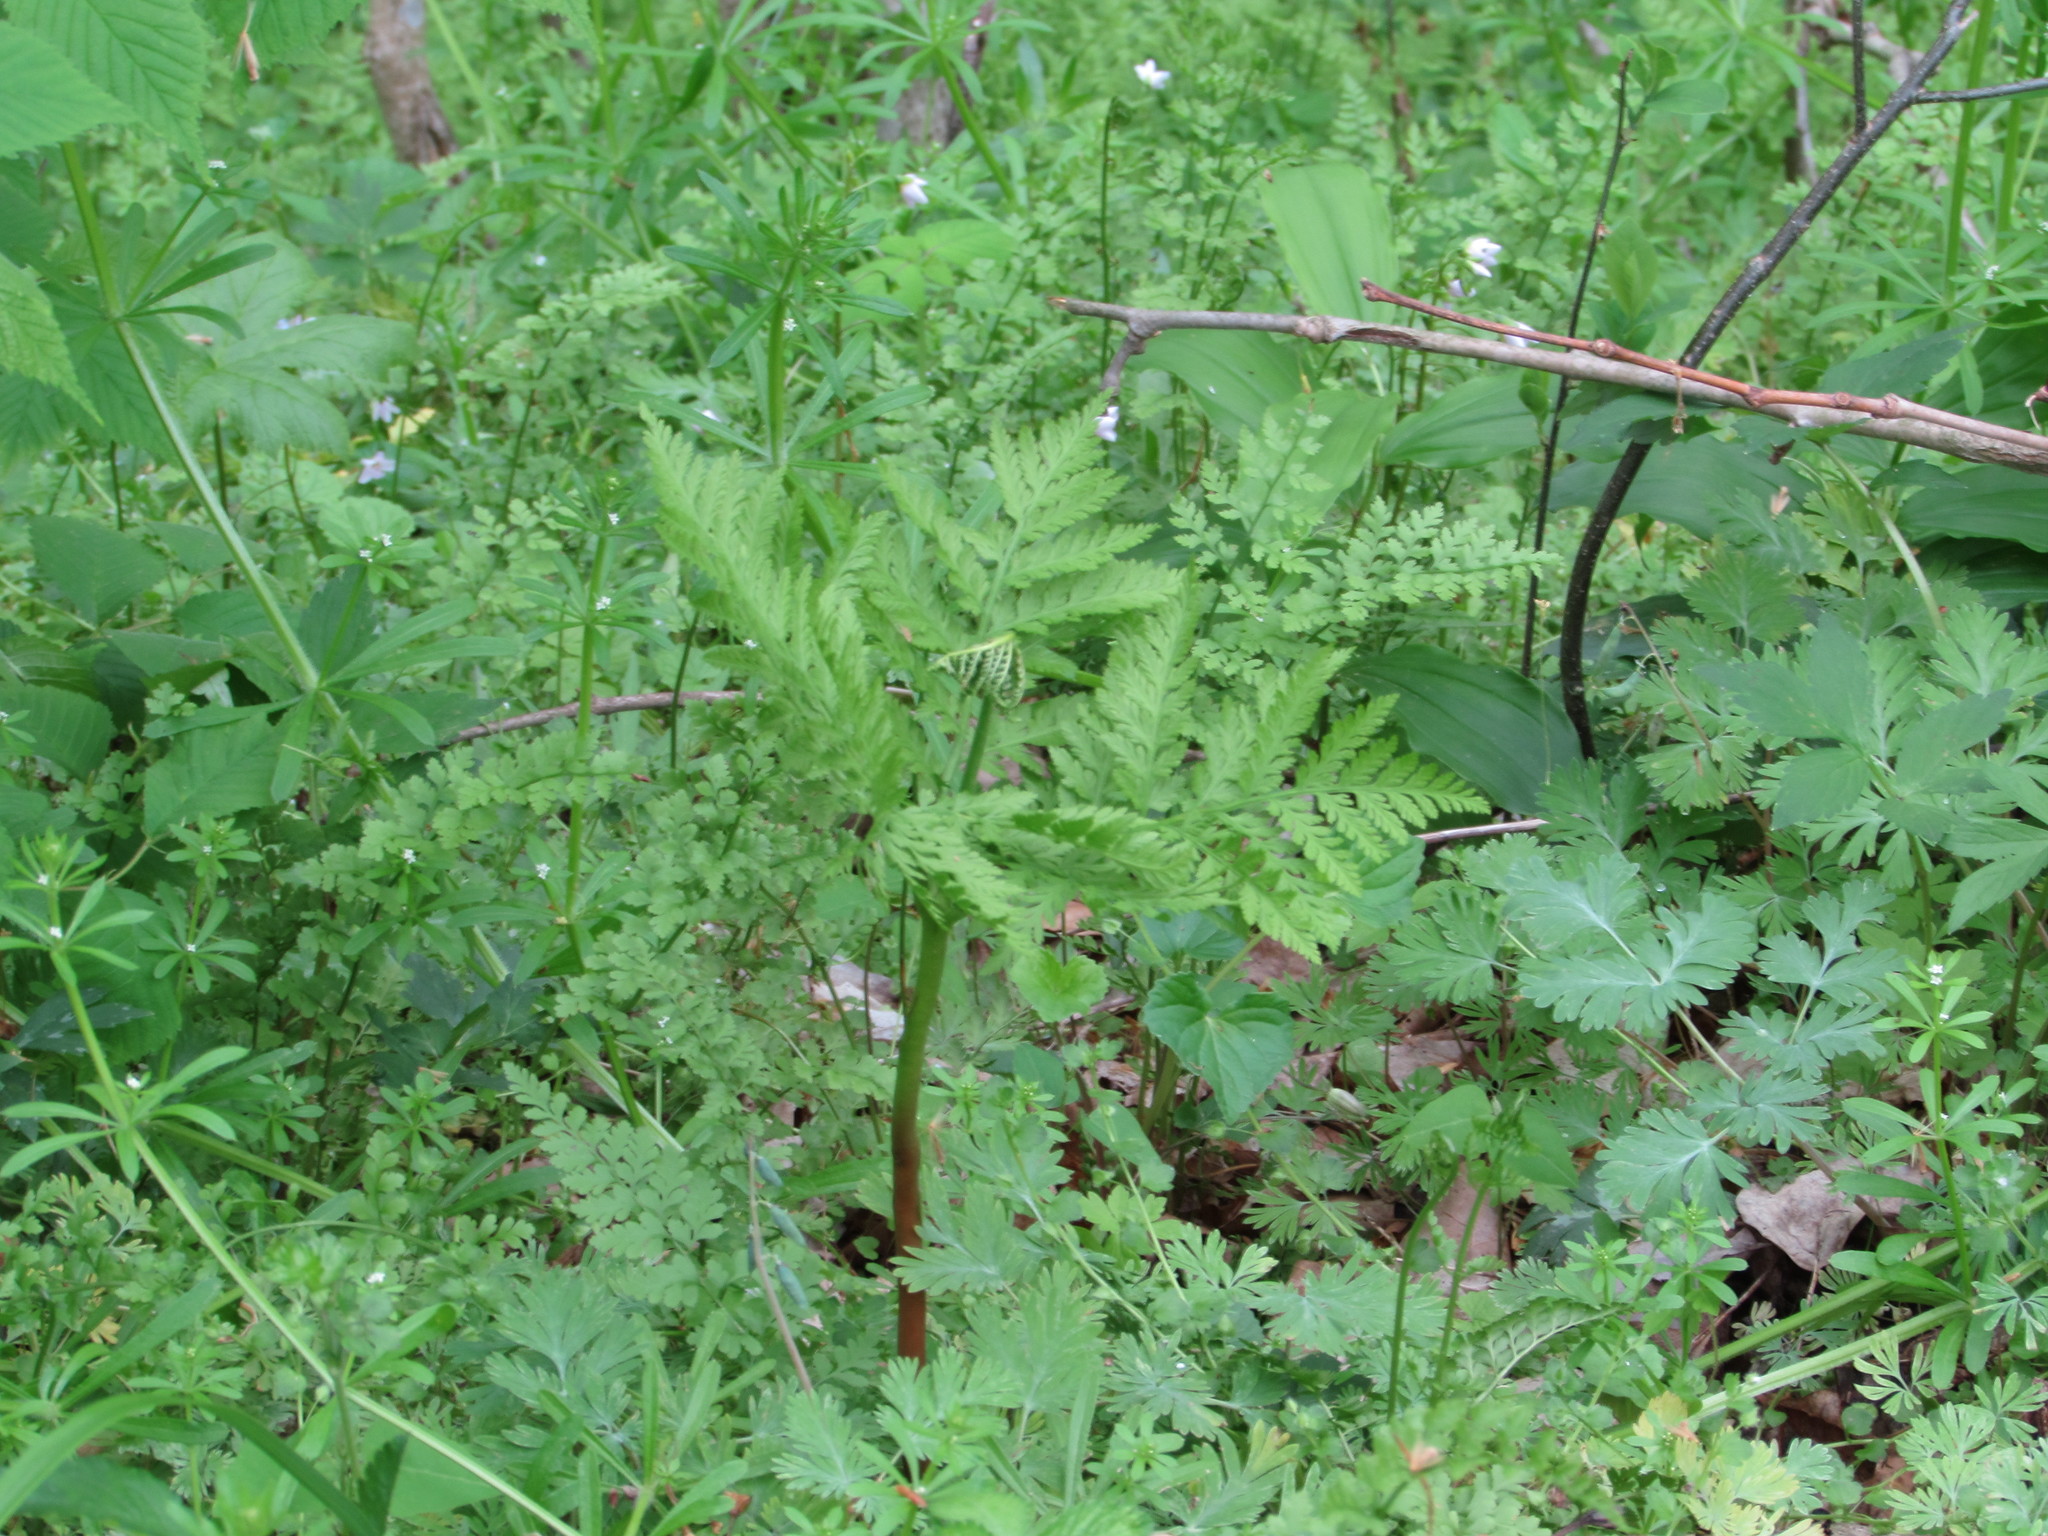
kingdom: Plantae
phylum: Tracheophyta
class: Polypodiopsida
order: Ophioglossales
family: Ophioglossaceae
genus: Botrypus
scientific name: Botrypus virginianus
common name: Common grapefern
